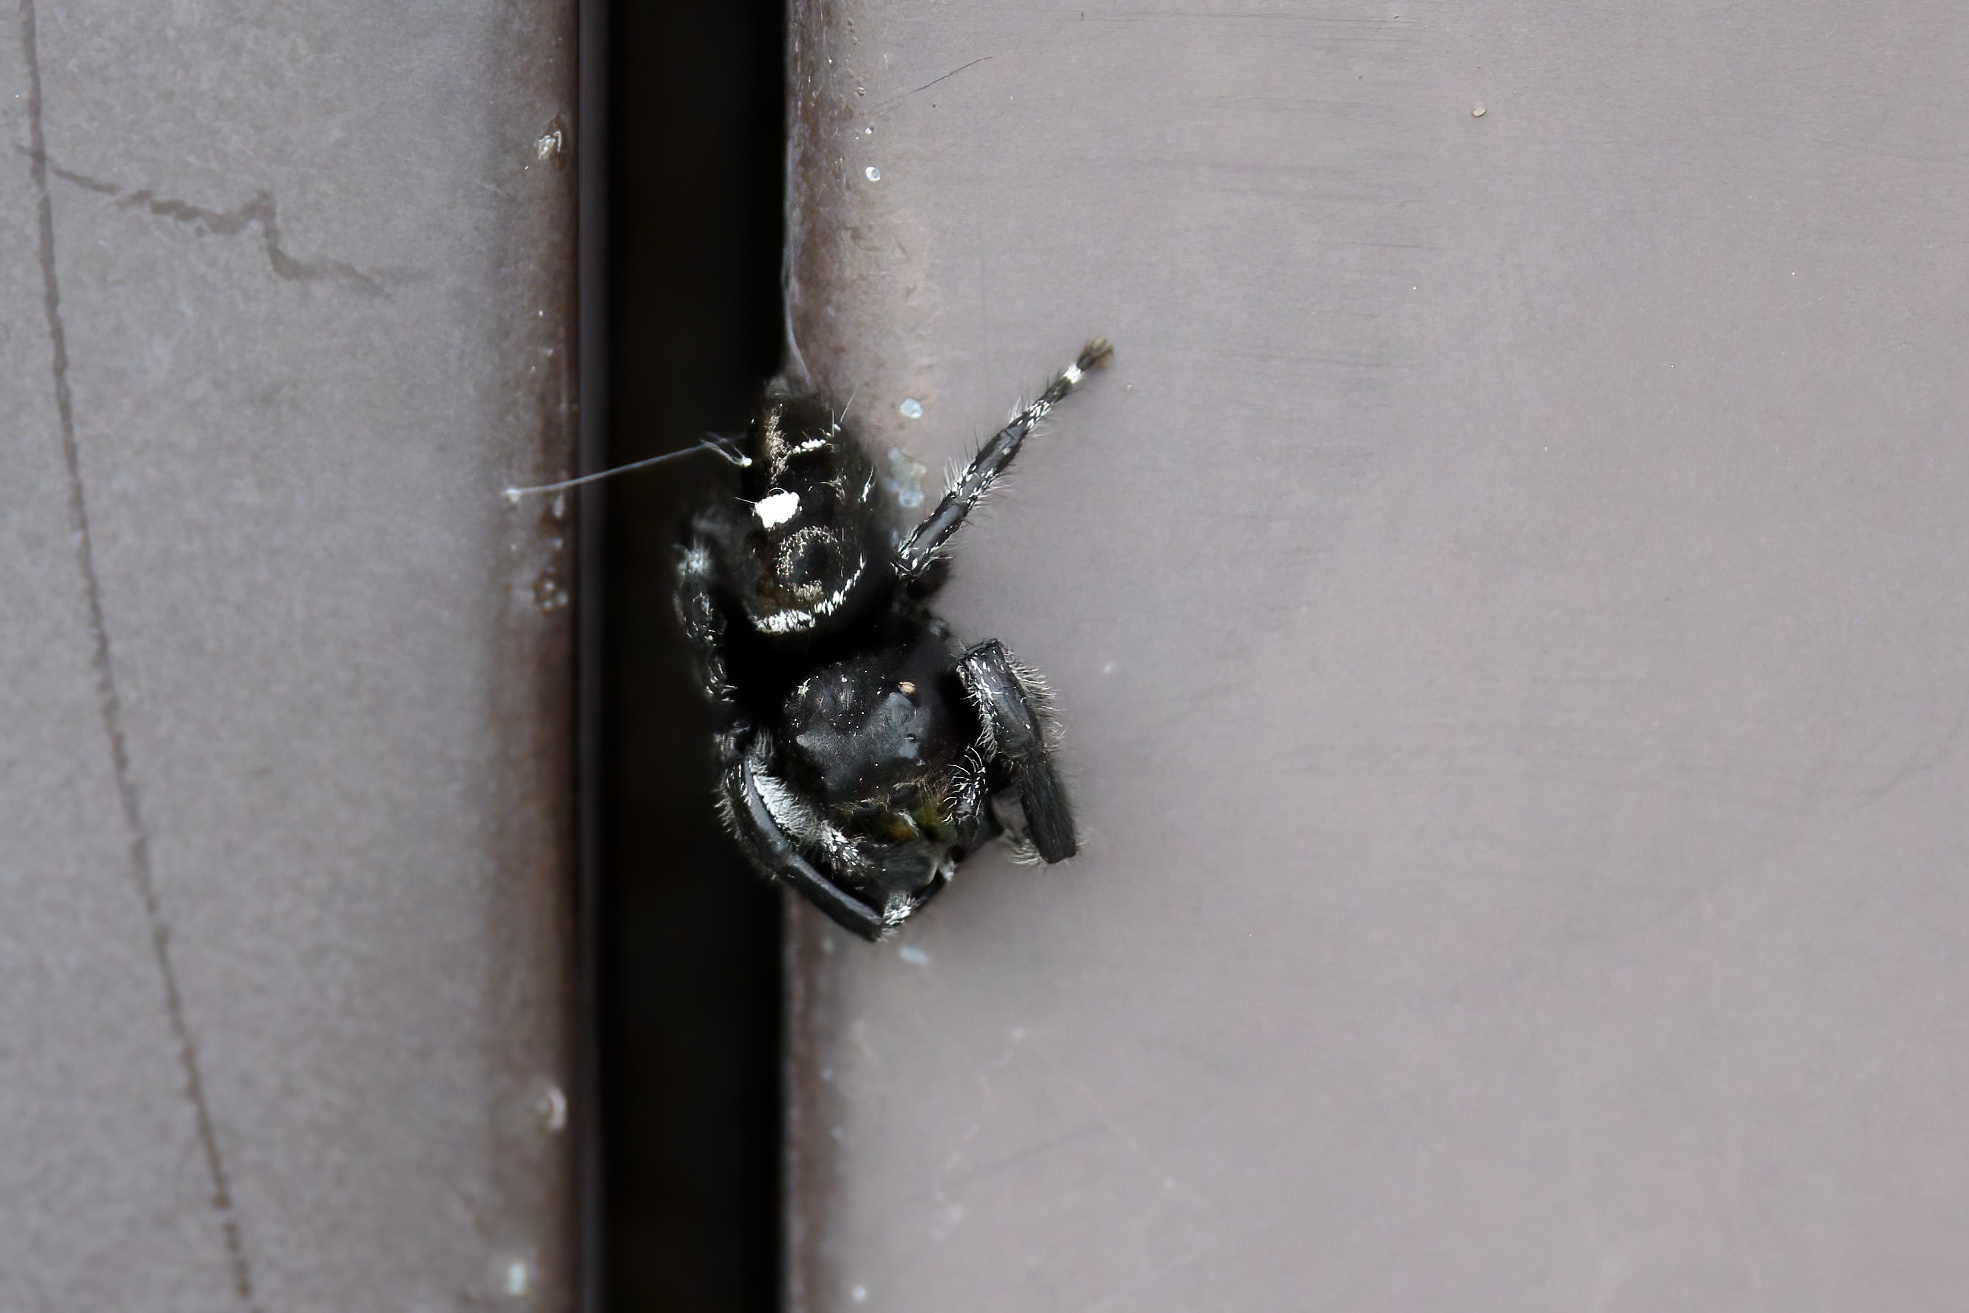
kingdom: Animalia
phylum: Arthropoda
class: Arachnida
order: Araneae
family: Salticidae
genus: Phidippus
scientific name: Phidippus audax
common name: Bold jumper
